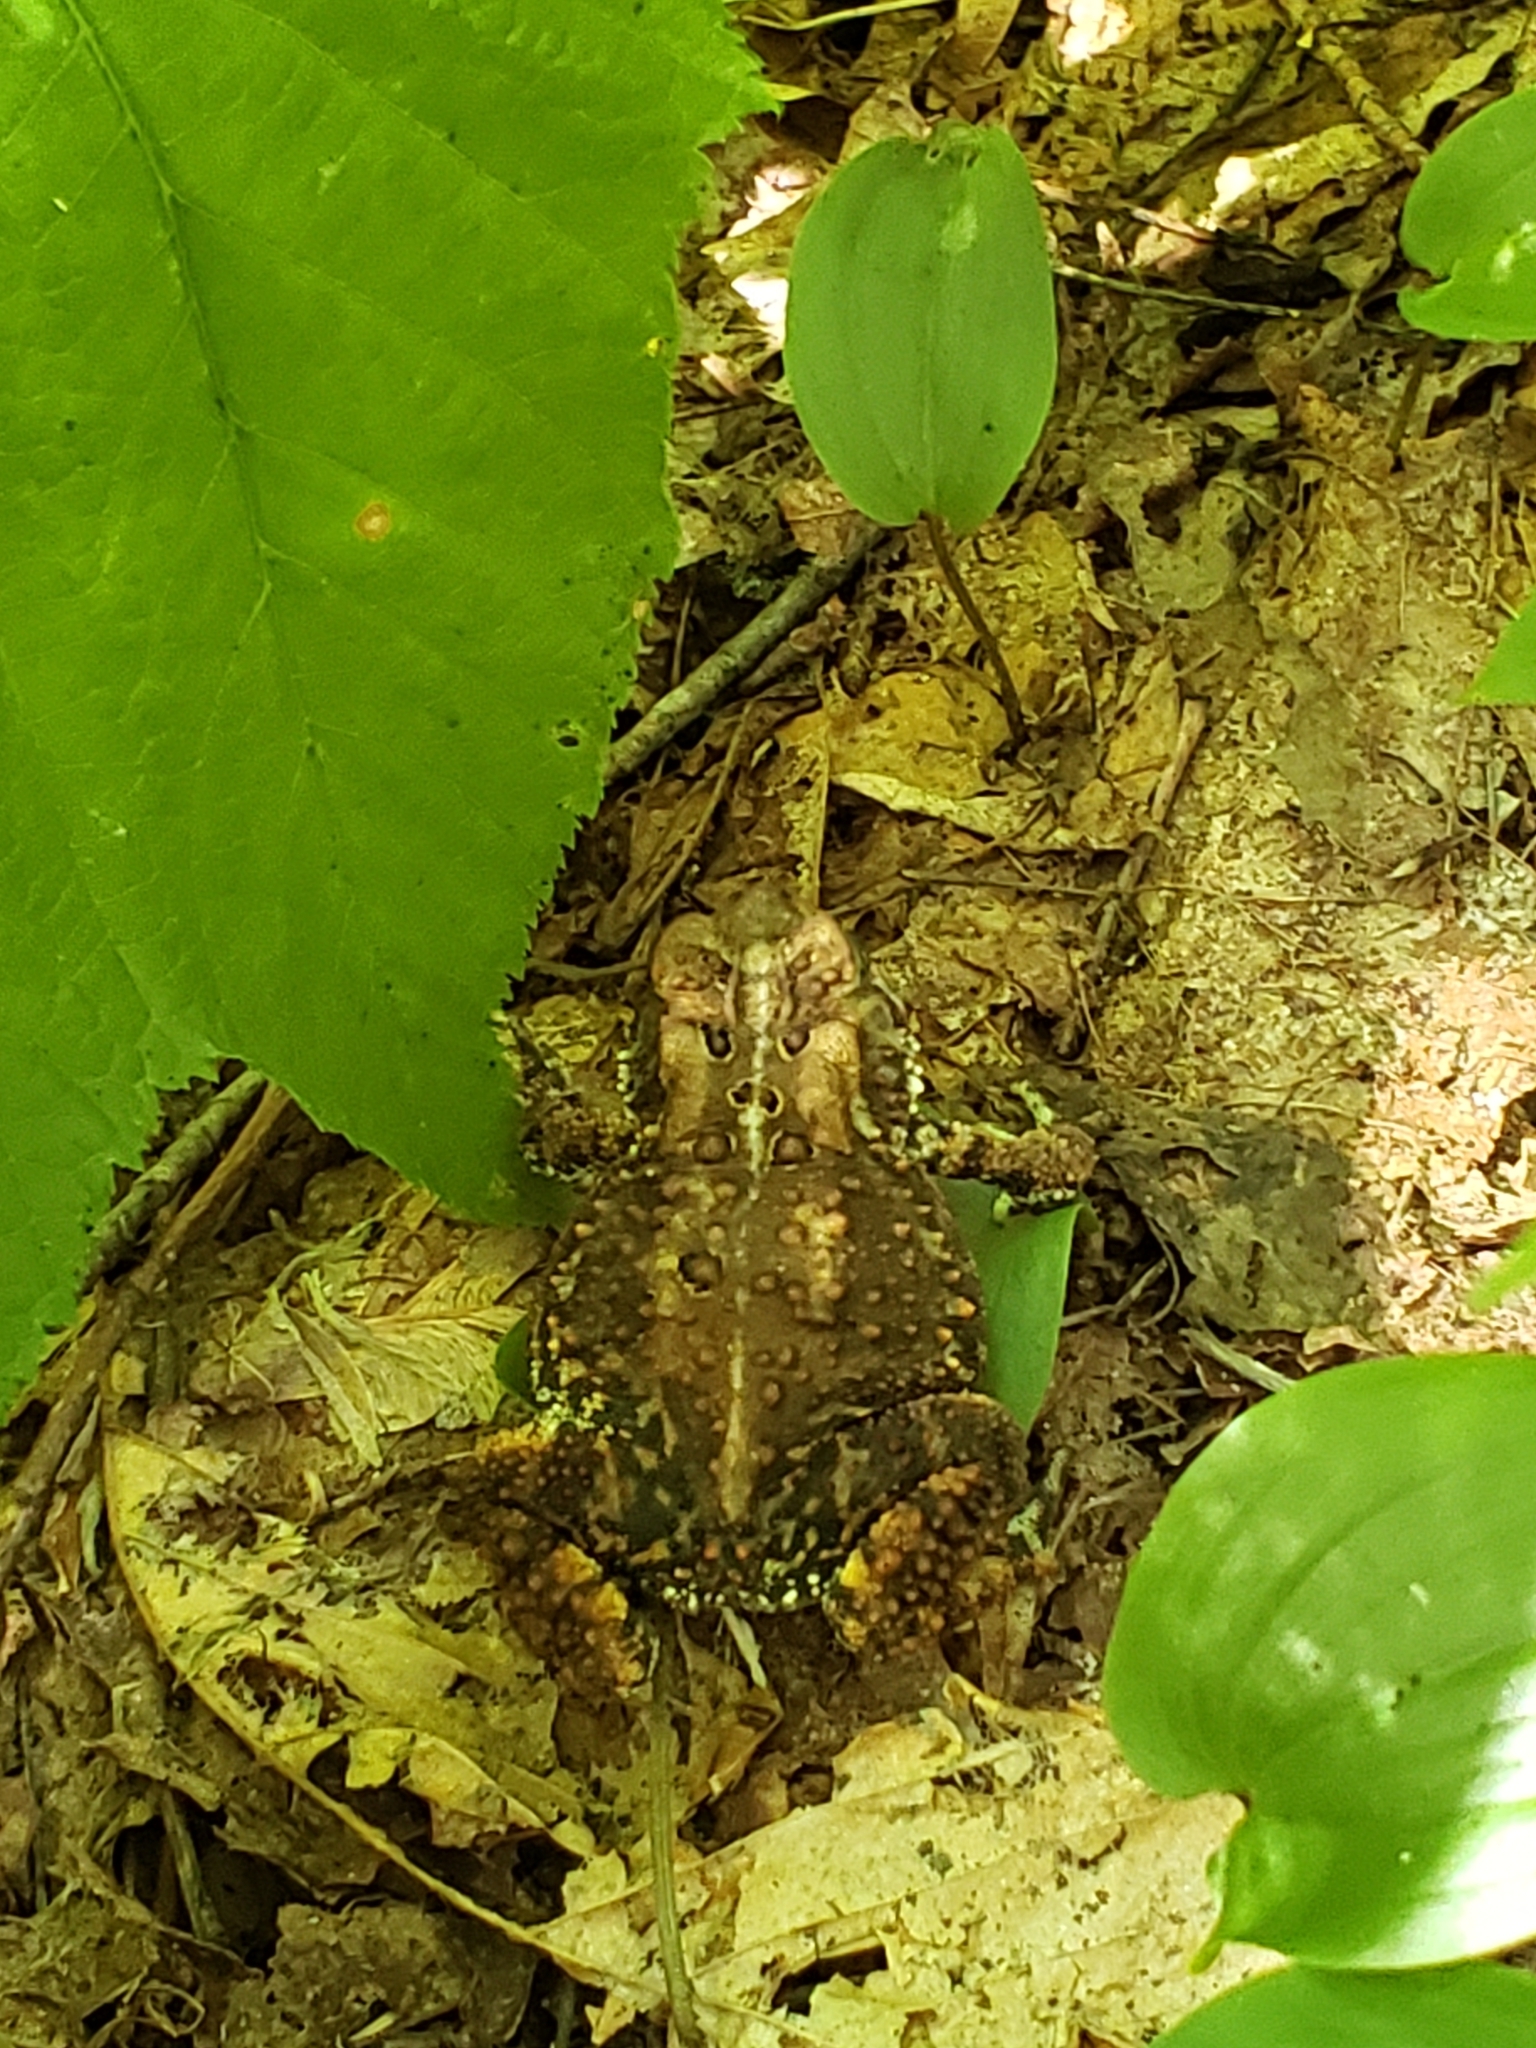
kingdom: Animalia
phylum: Chordata
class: Amphibia
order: Anura
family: Bufonidae
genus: Anaxyrus
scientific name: Anaxyrus americanus
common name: American toad
